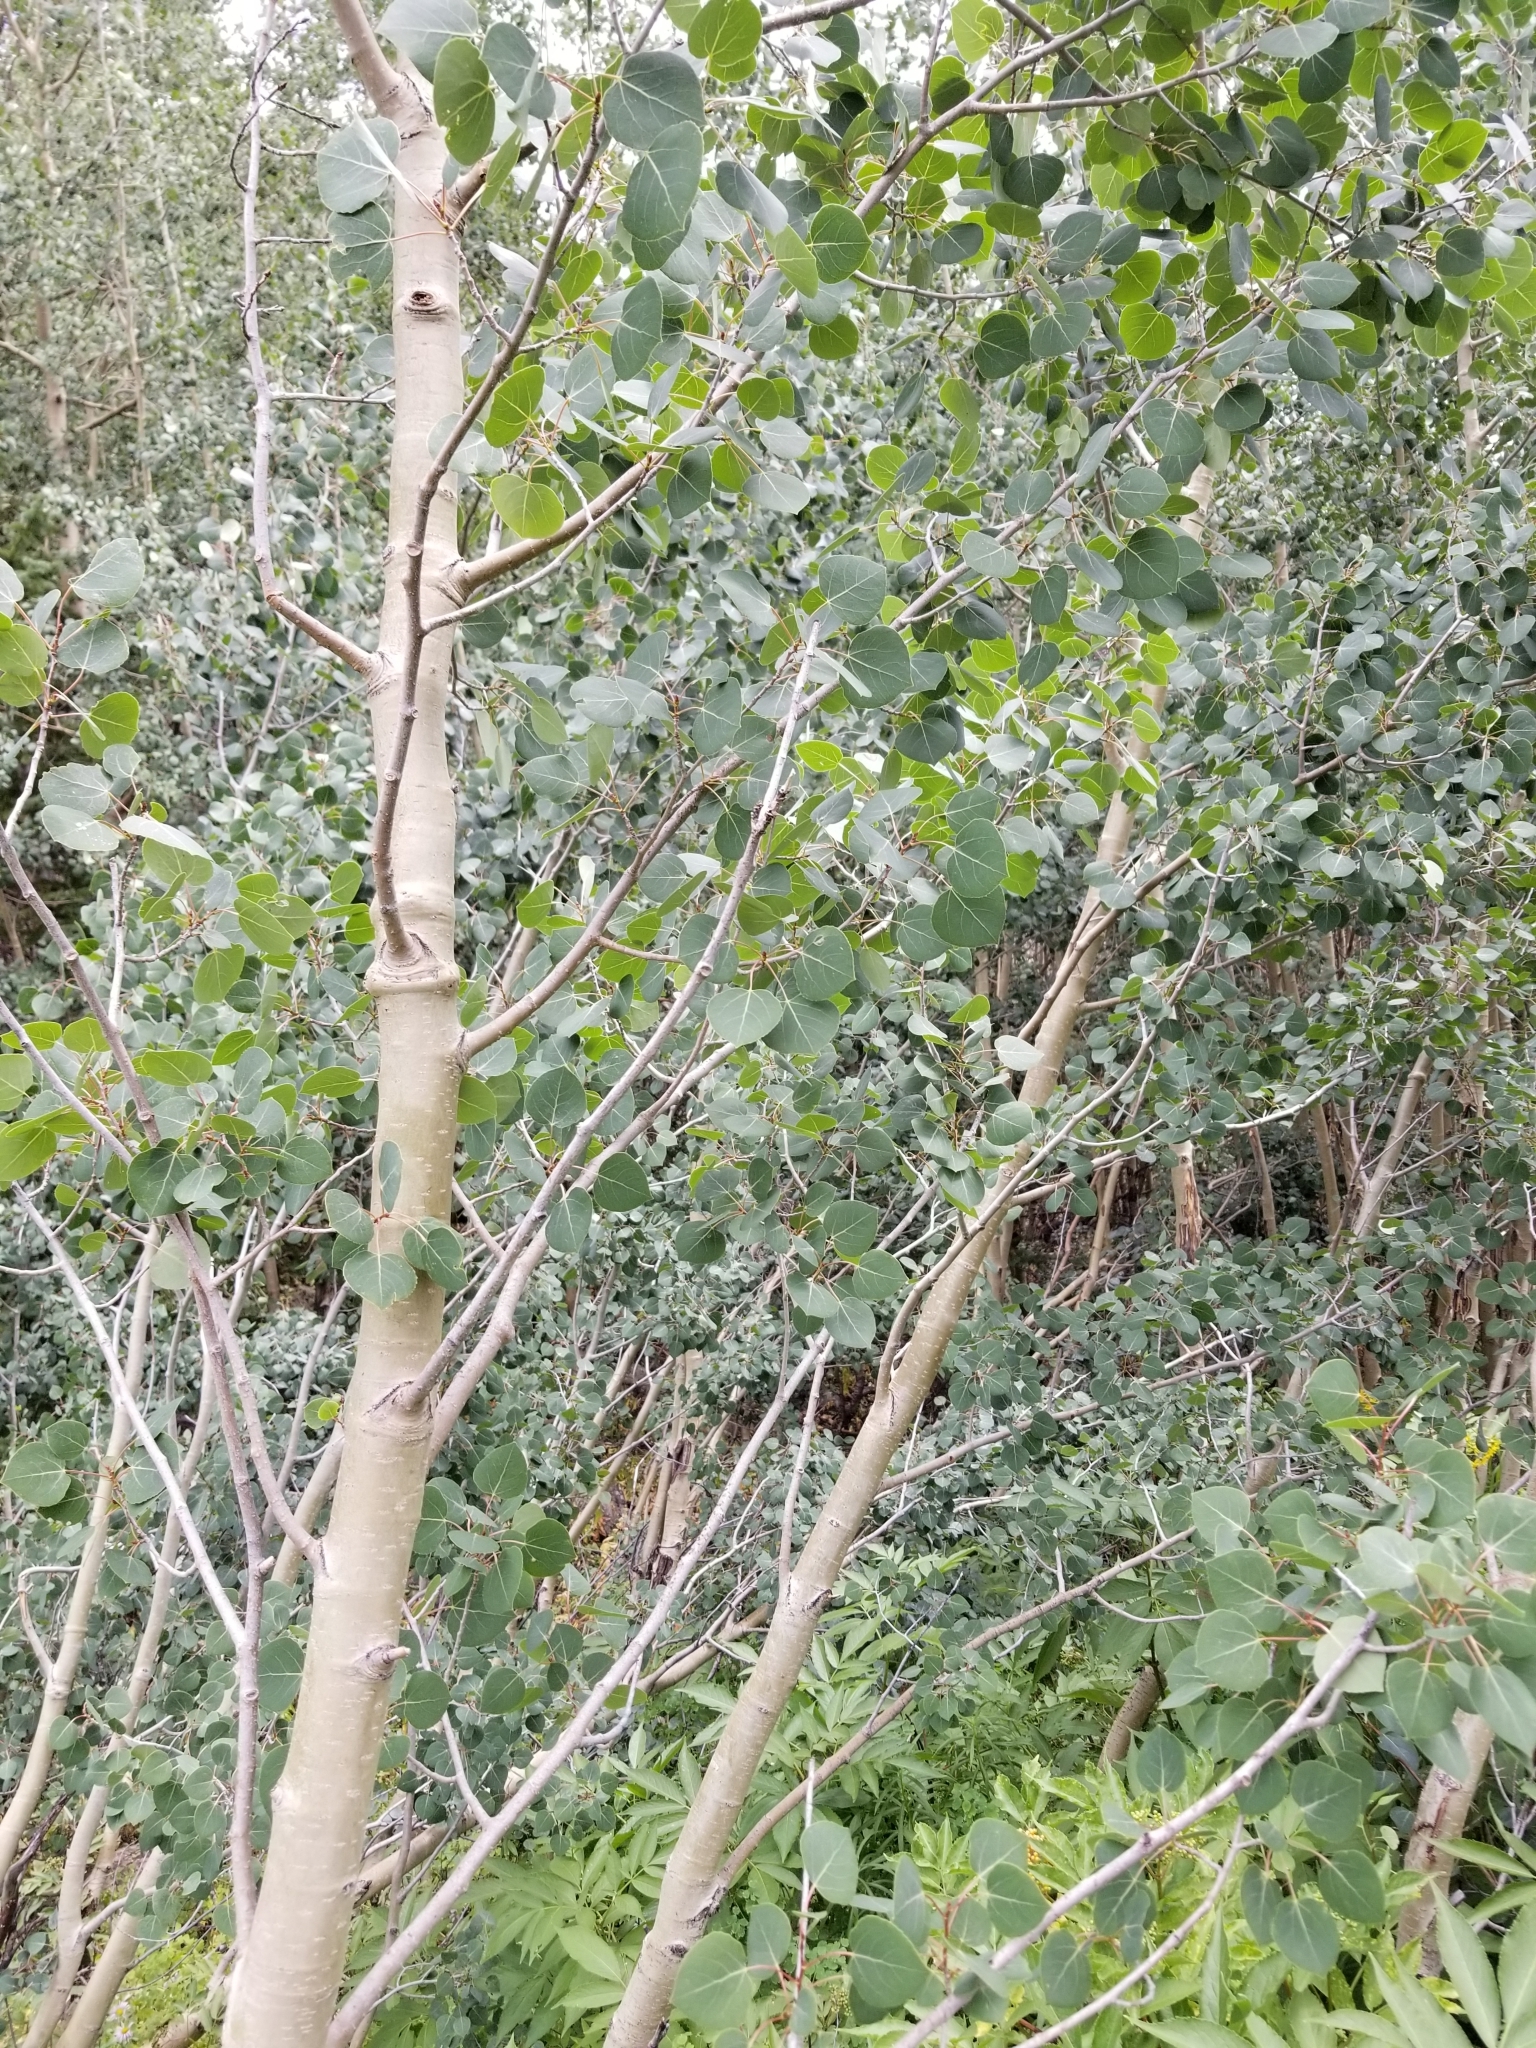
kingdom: Plantae
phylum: Tracheophyta
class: Magnoliopsida
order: Malpighiales
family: Salicaceae
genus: Populus
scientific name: Populus tremuloides
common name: Quaking aspen
